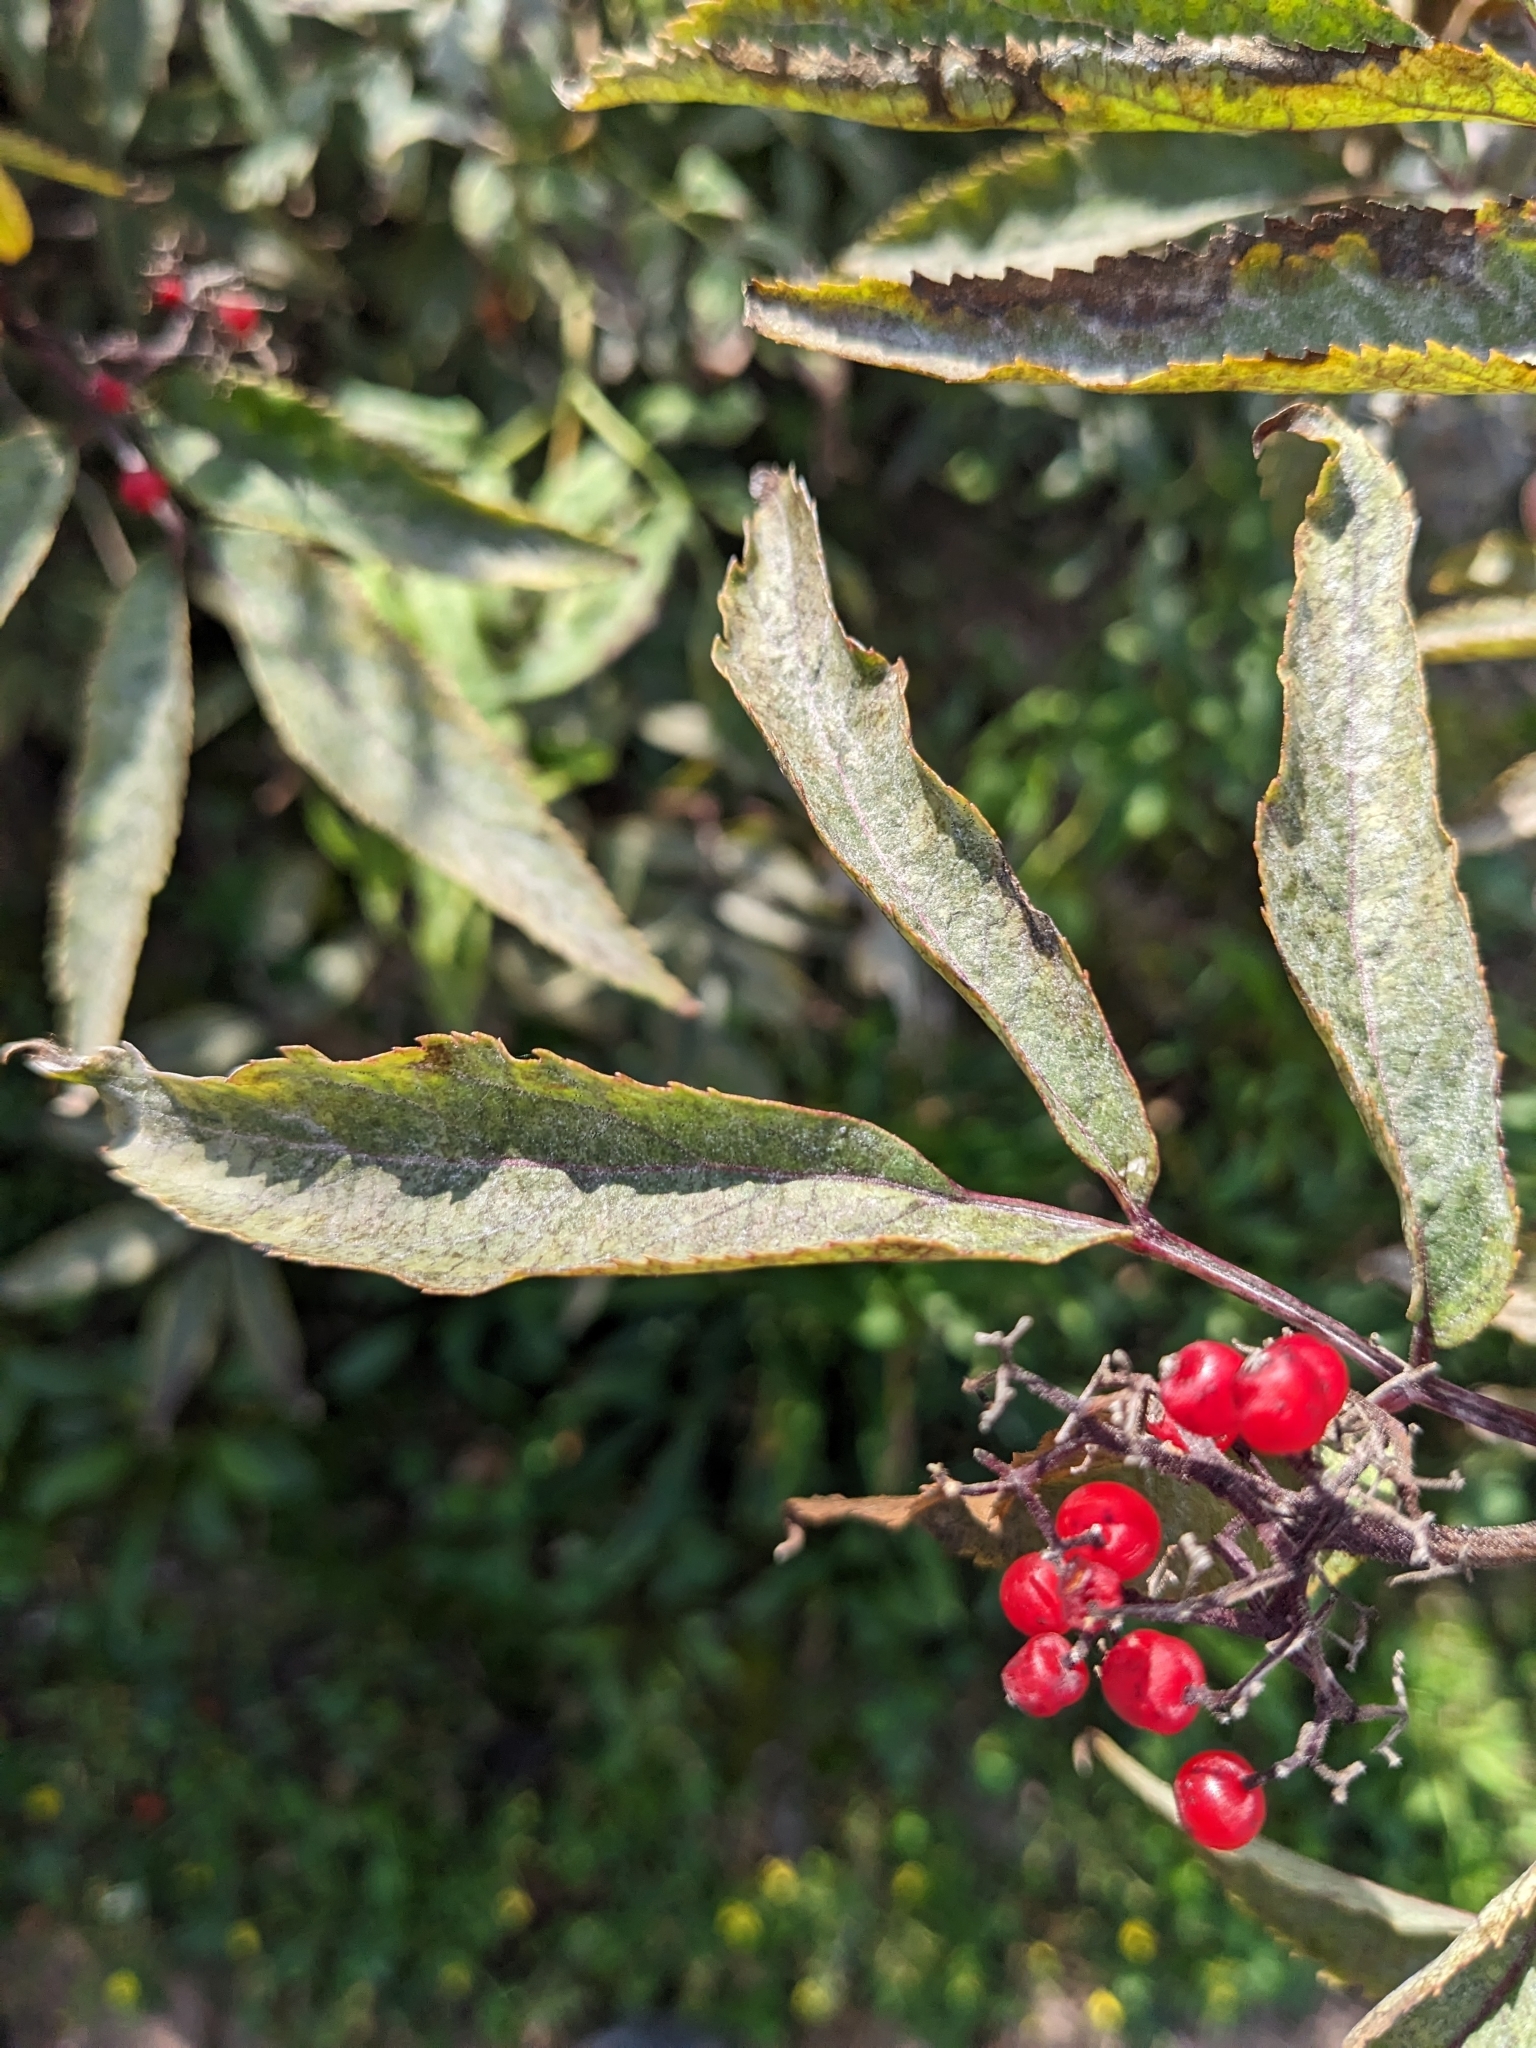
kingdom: Plantae
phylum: Tracheophyta
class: Magnoliopsida
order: Dipsacales
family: Viburnaceae
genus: Sambucus
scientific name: Sambucus racemosa
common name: Red-berried elder
